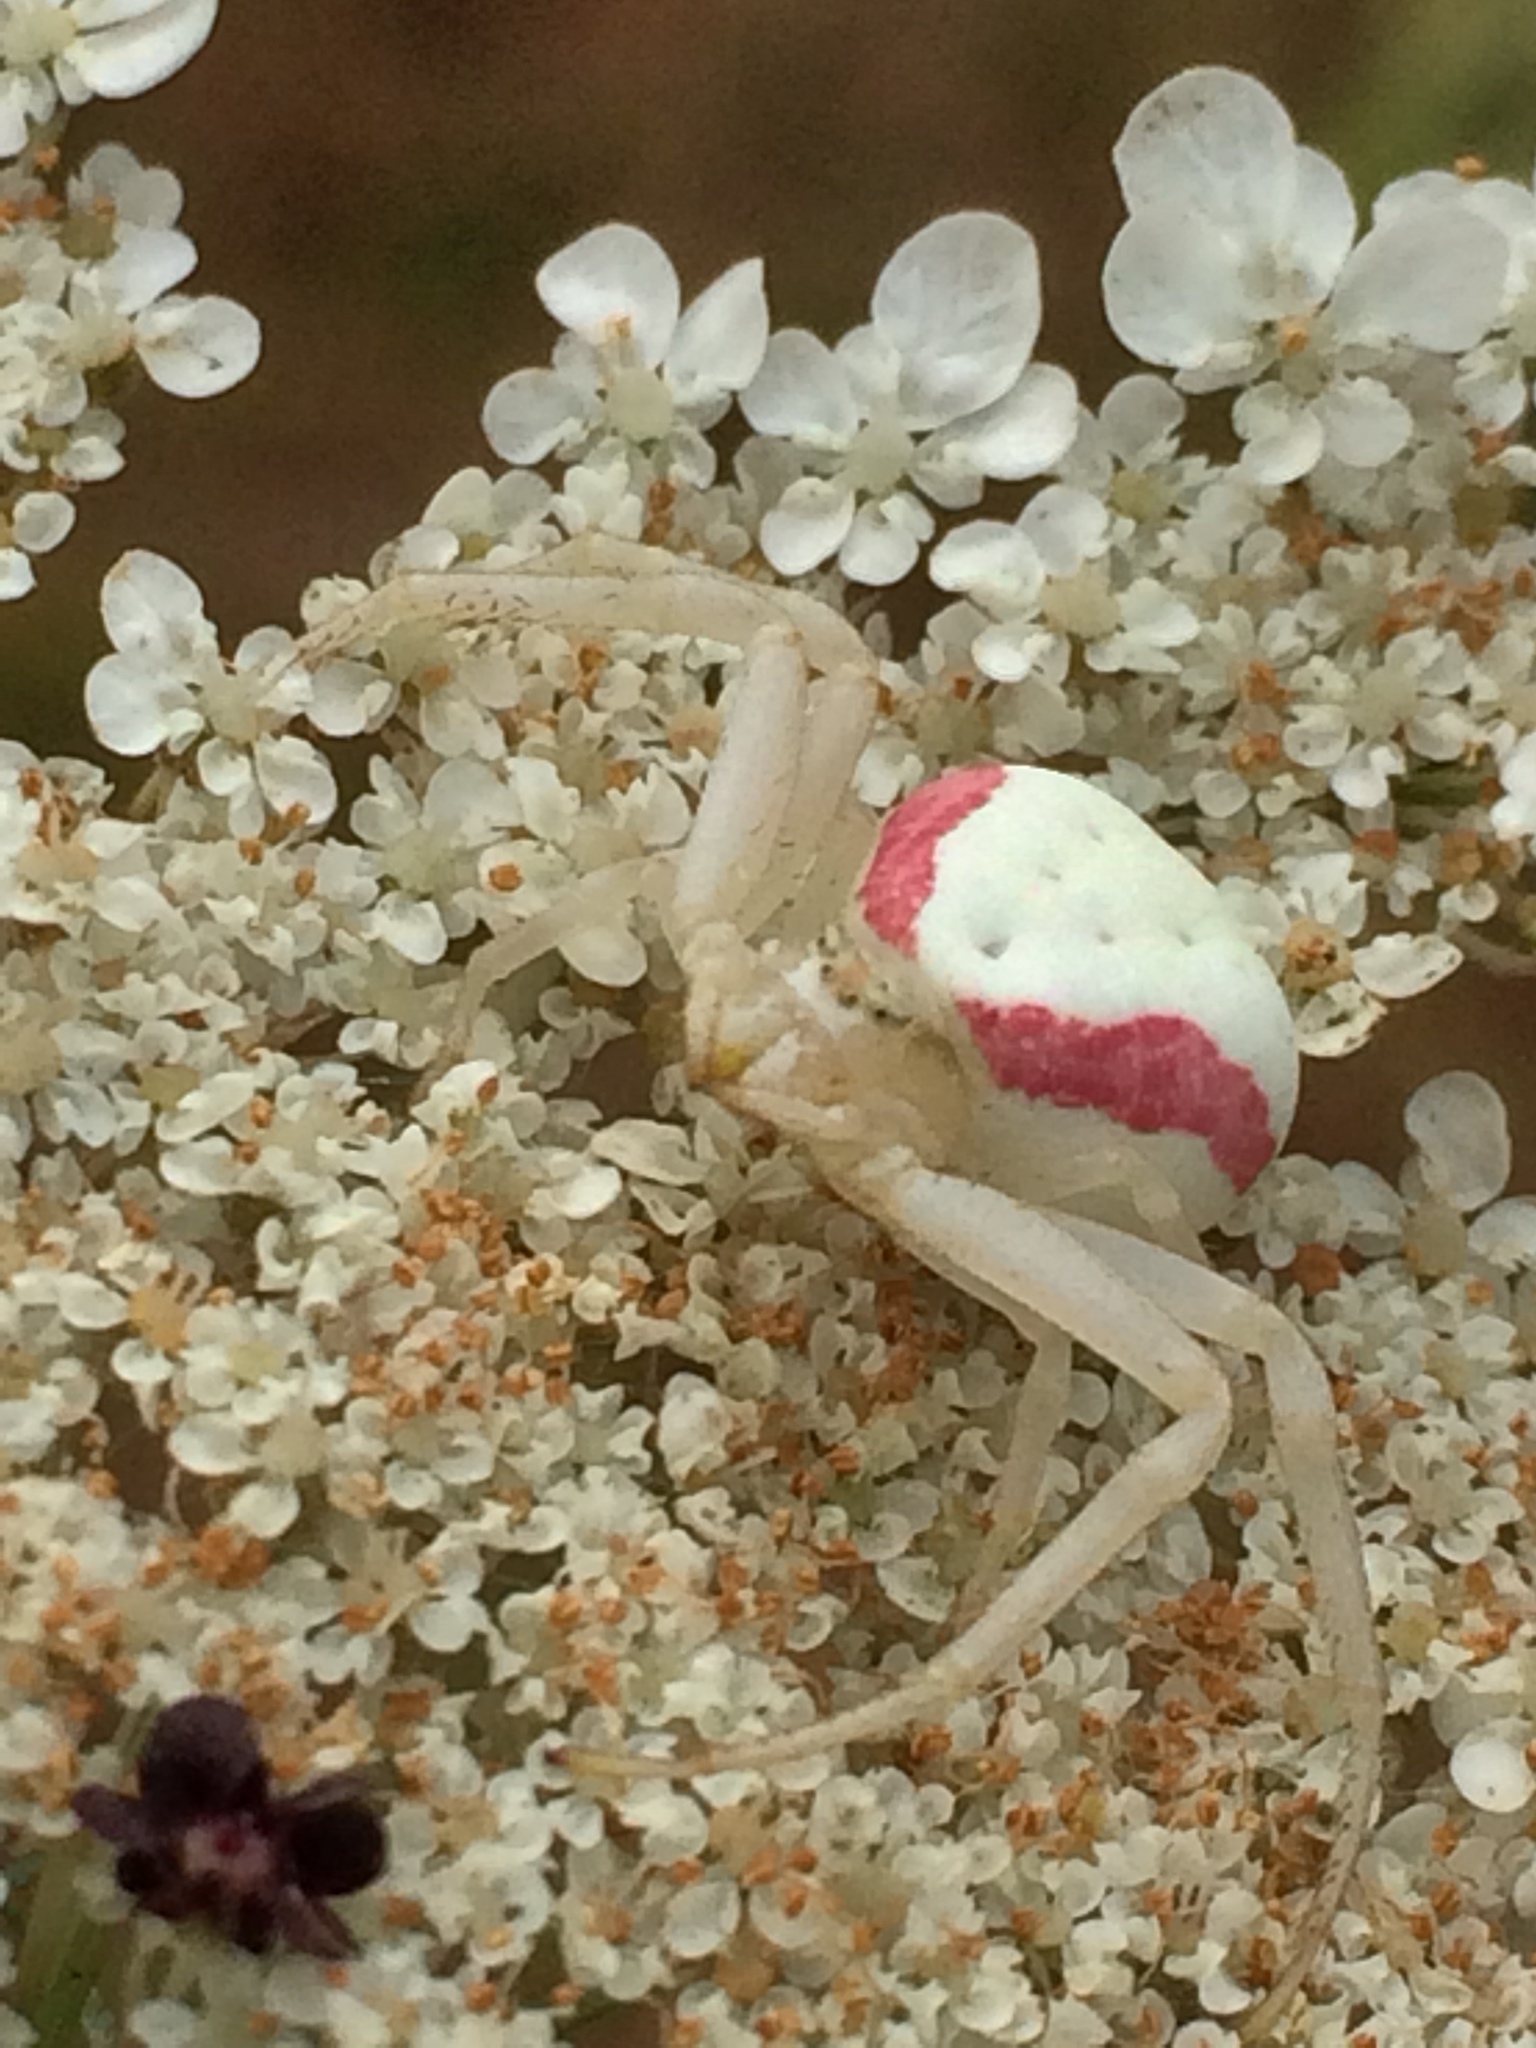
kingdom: Animalia
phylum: Arthropoda
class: Arachnida
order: Araneae
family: Thomisidae
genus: Misumena
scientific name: Misumena vatia
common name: Goldenrod crab spider
